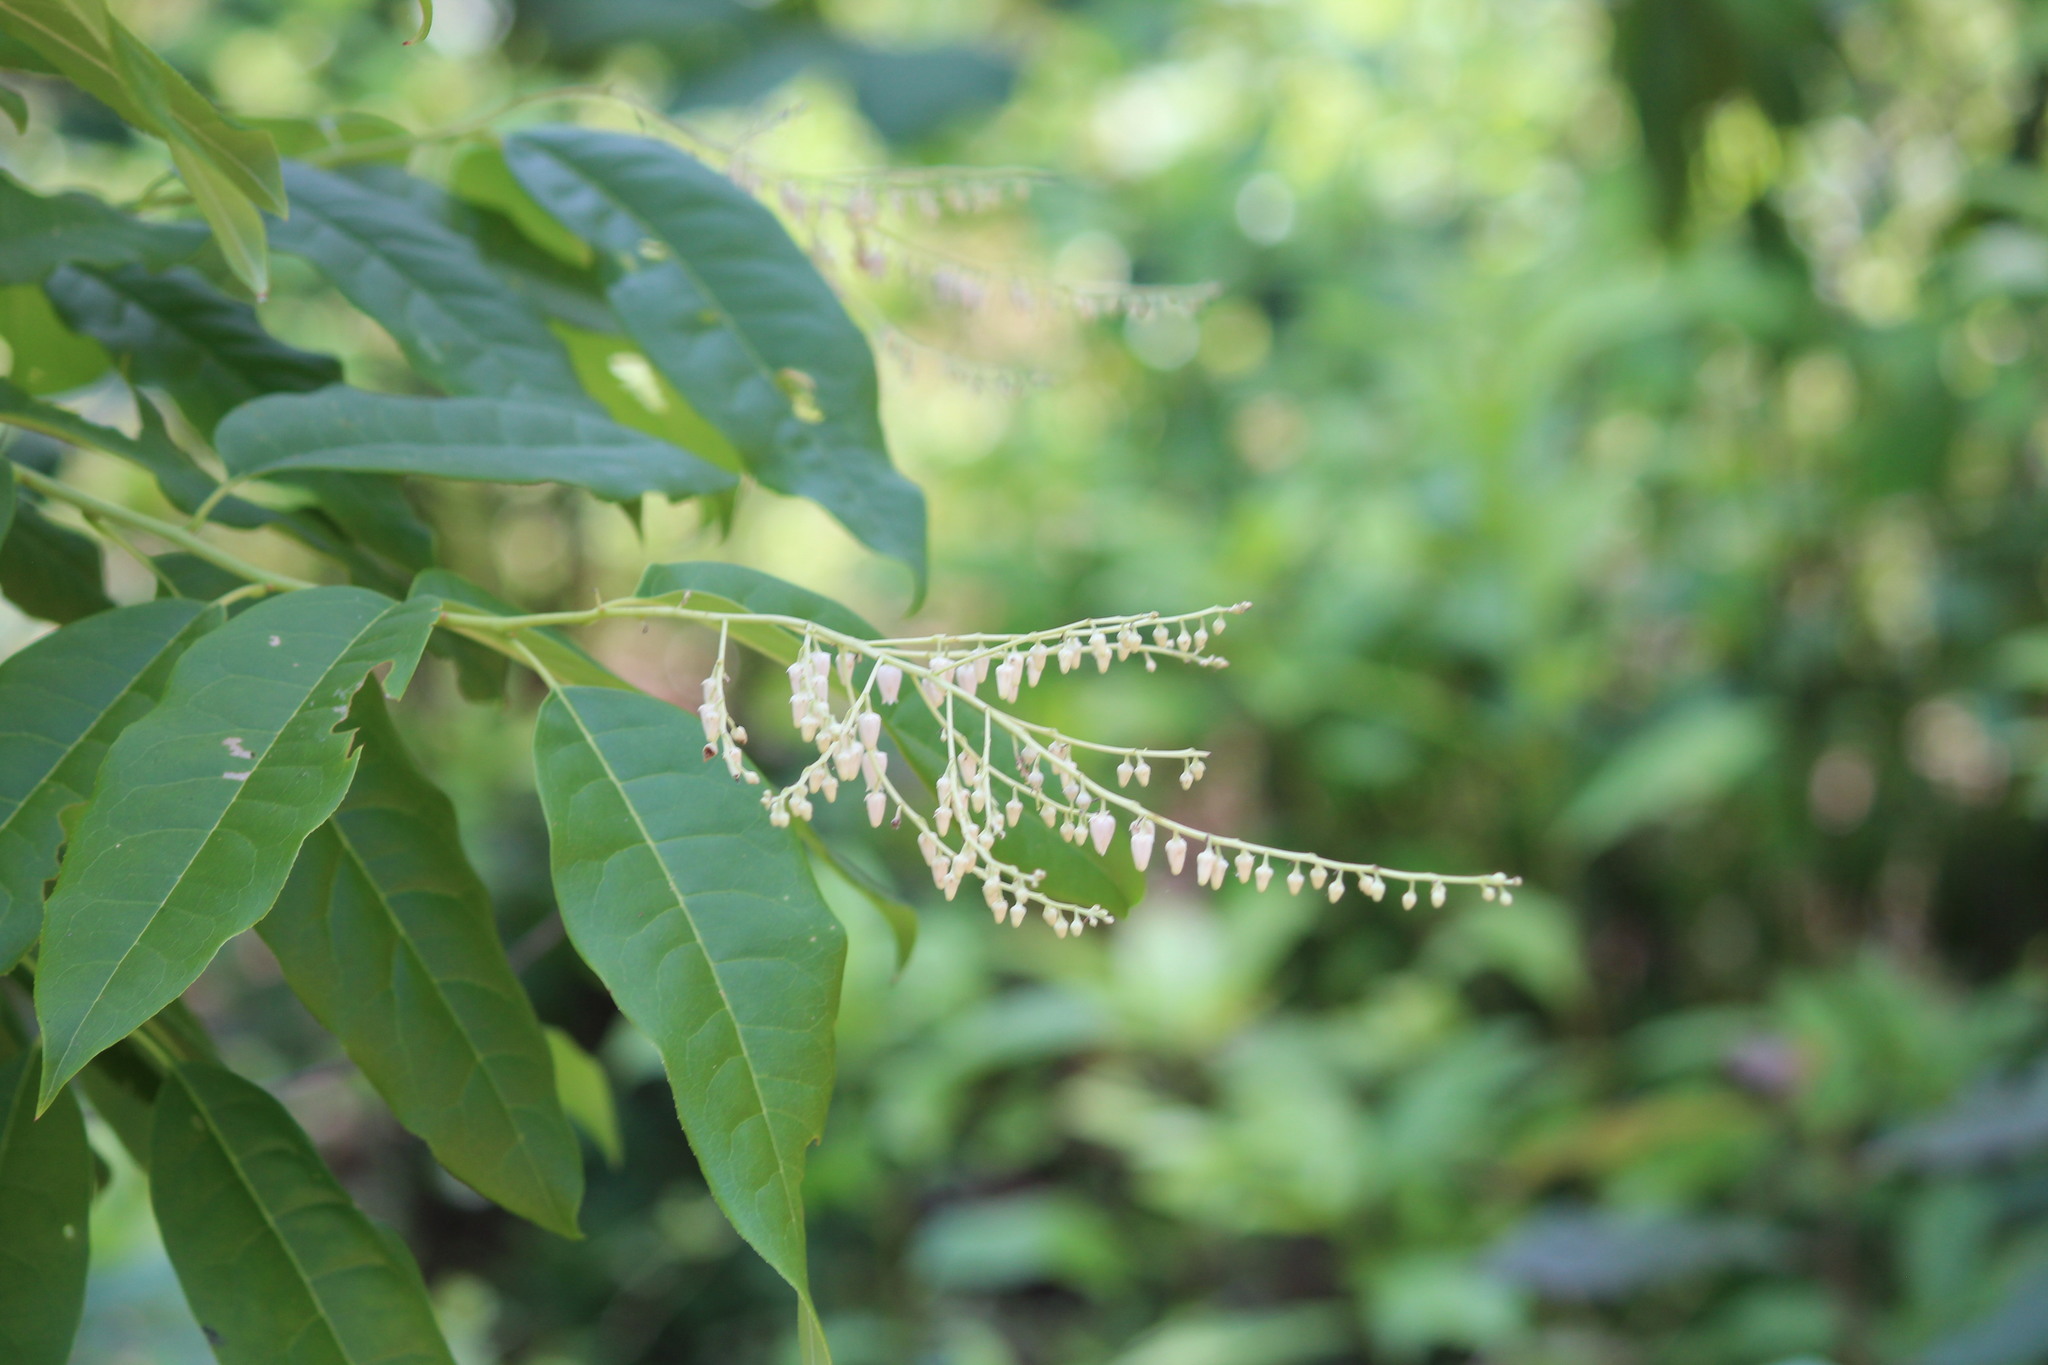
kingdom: Plantae
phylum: Tracheophyta
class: Magnoliopsida
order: Ericales
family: Ericaceae
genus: Oxydendrum
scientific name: Oxydendrum arboreum
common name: Sourwood
